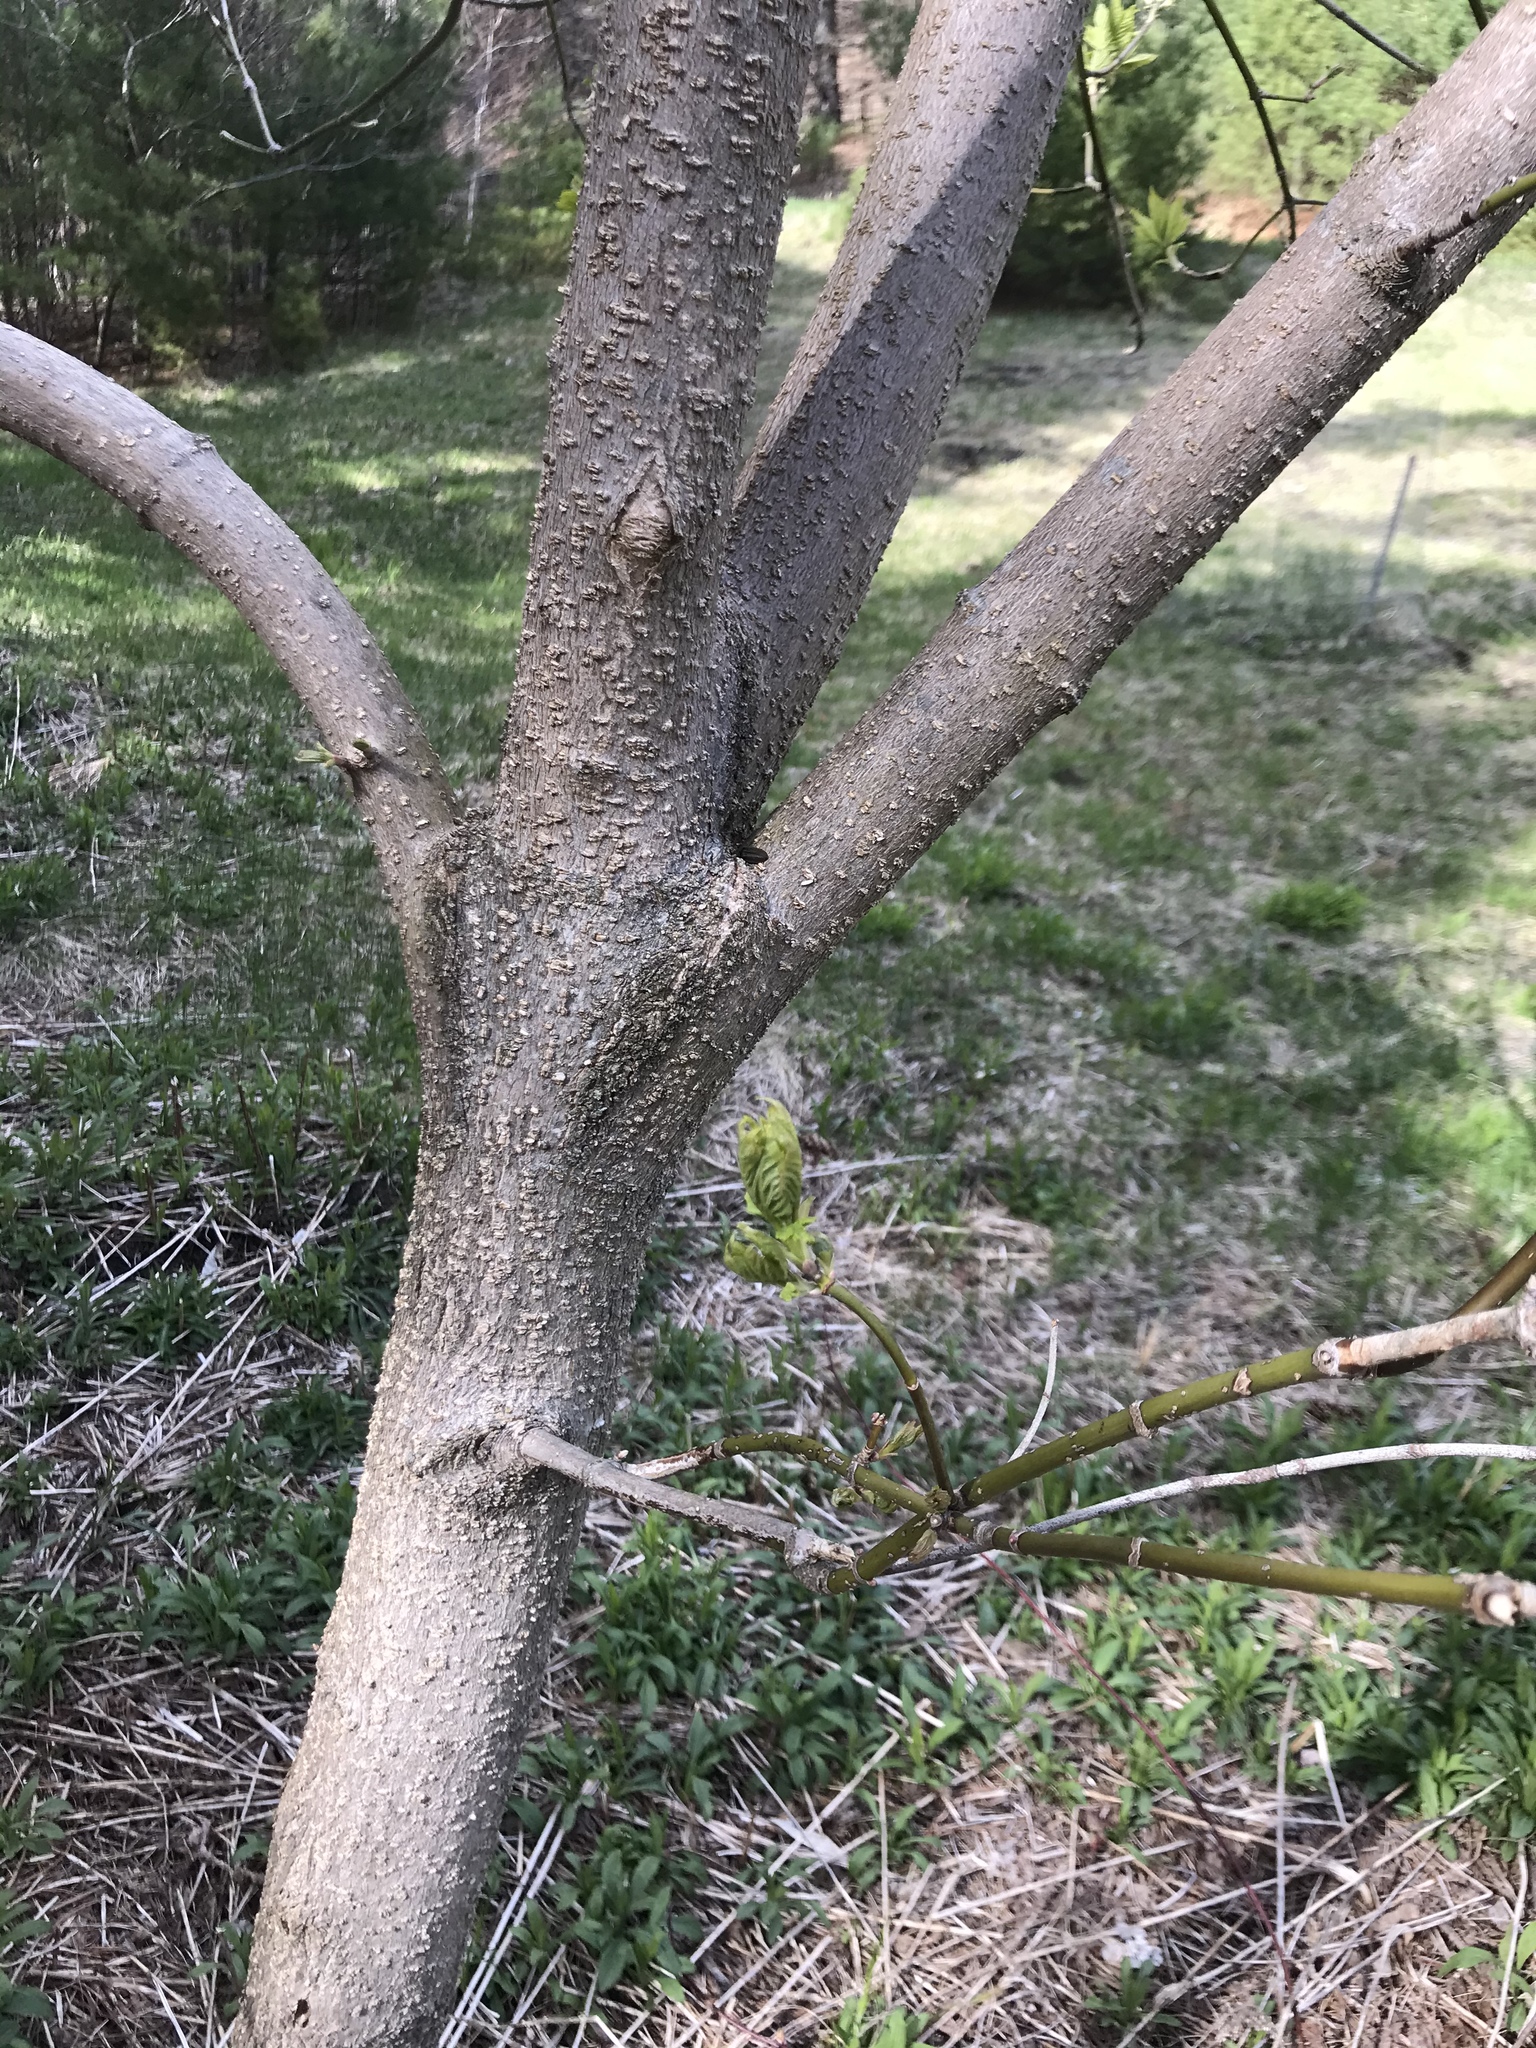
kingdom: Plantae
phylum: Tracheophyta
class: Magnoliopsida
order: Sapindales
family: Sapindaceae
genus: Acer
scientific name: Acer negundo
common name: Ashleaf maple
